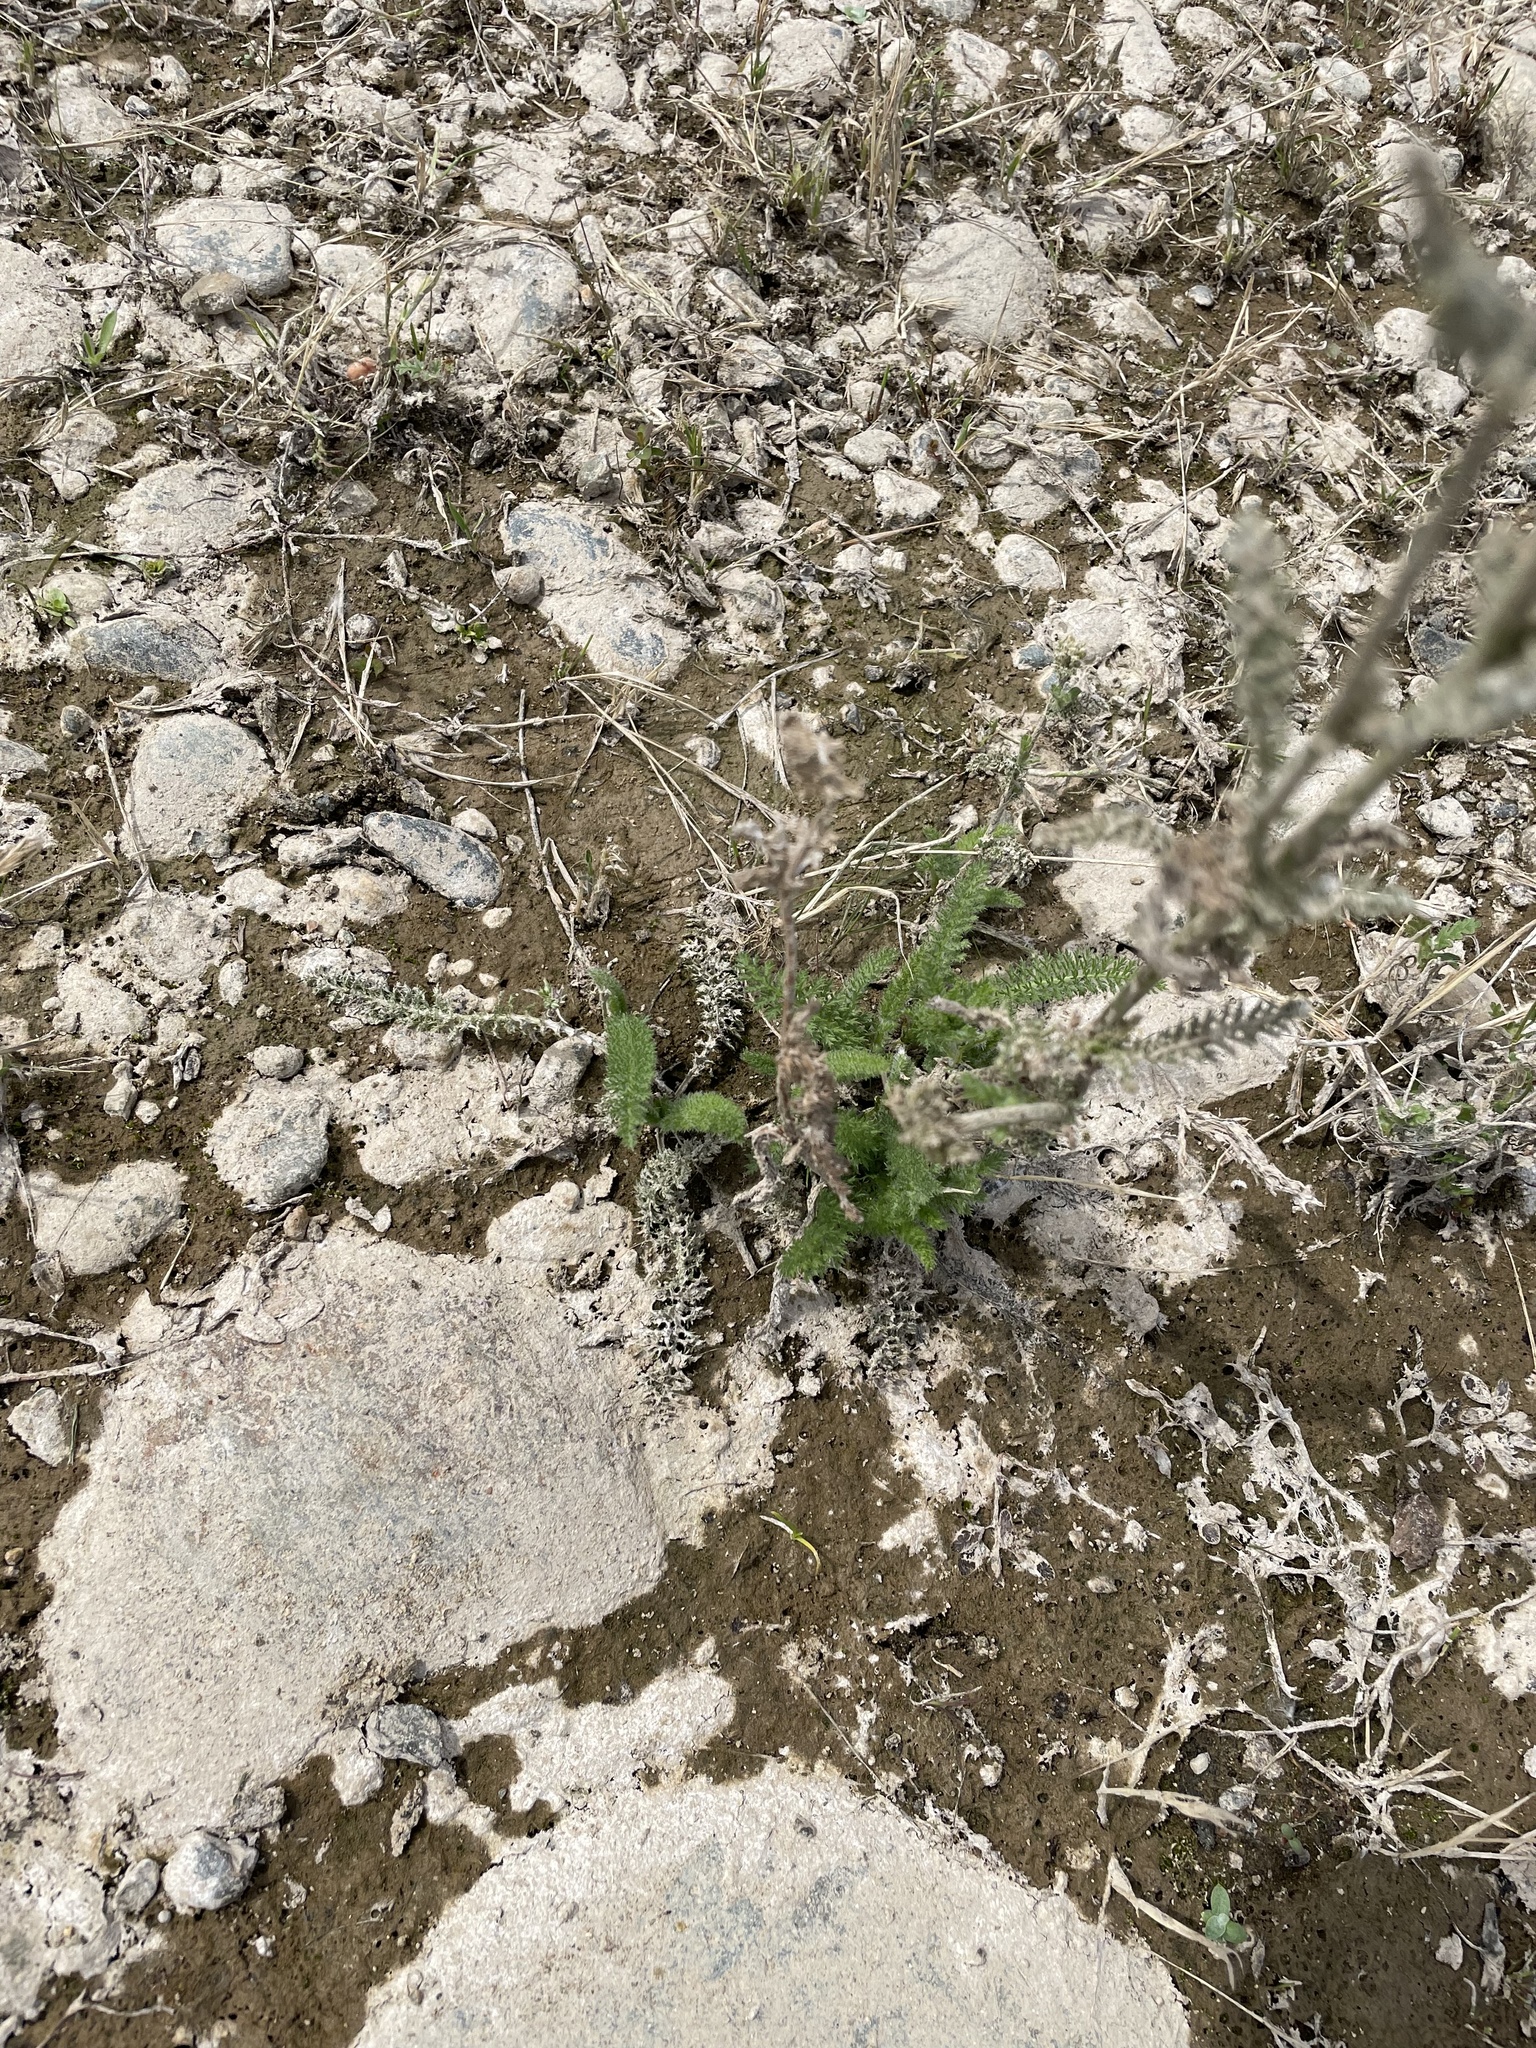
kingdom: Plantae
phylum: Tracheophyta
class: Magnoliopsida
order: Asterales
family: Asteraceae
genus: Achillea
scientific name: Achillea millefolium
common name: Yarrow
